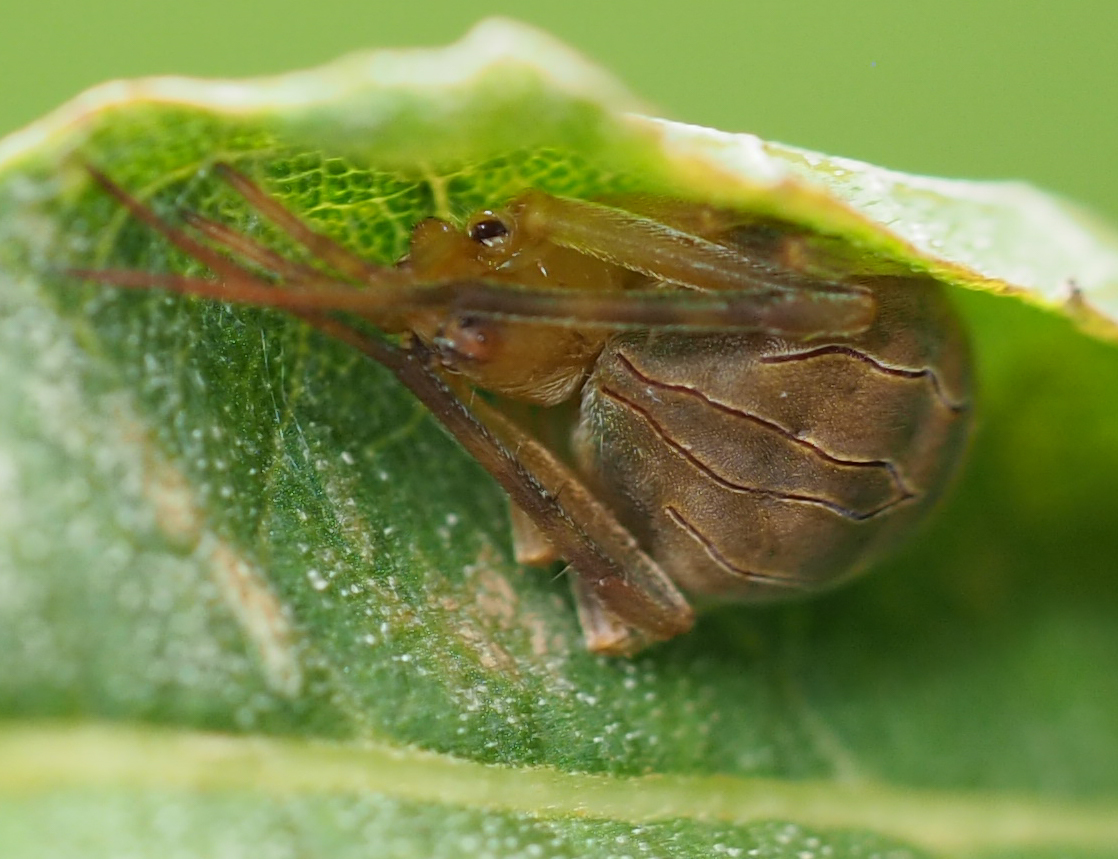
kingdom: Animalia
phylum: Arthropoda
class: Arachnida
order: Araneae
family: Araneidae
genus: Acacesia
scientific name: Acacesia hamata
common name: Orb weavers
